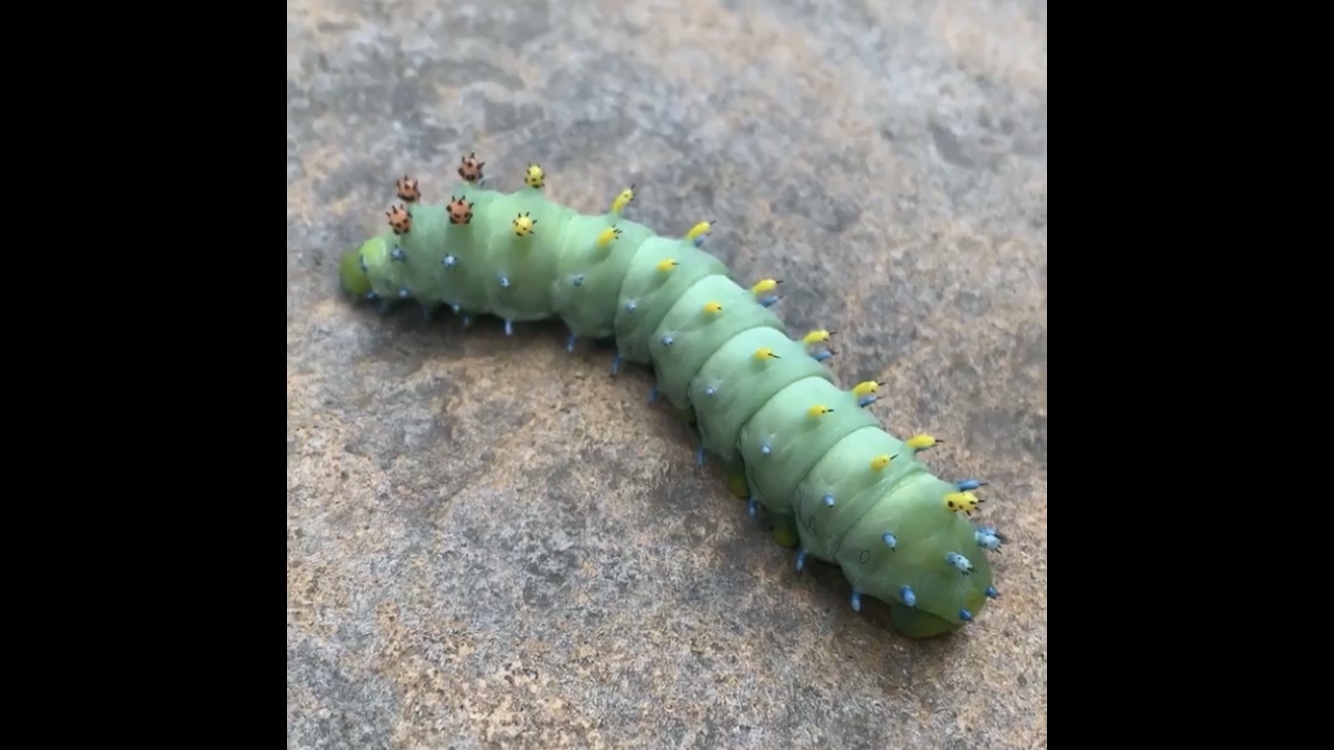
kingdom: Animalia
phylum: Arthropoda
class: Insecta
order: Lepidoptera
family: Saturniidae
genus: Hyalophora
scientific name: Hyalophora cecropia
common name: Cecropia silkmoth
